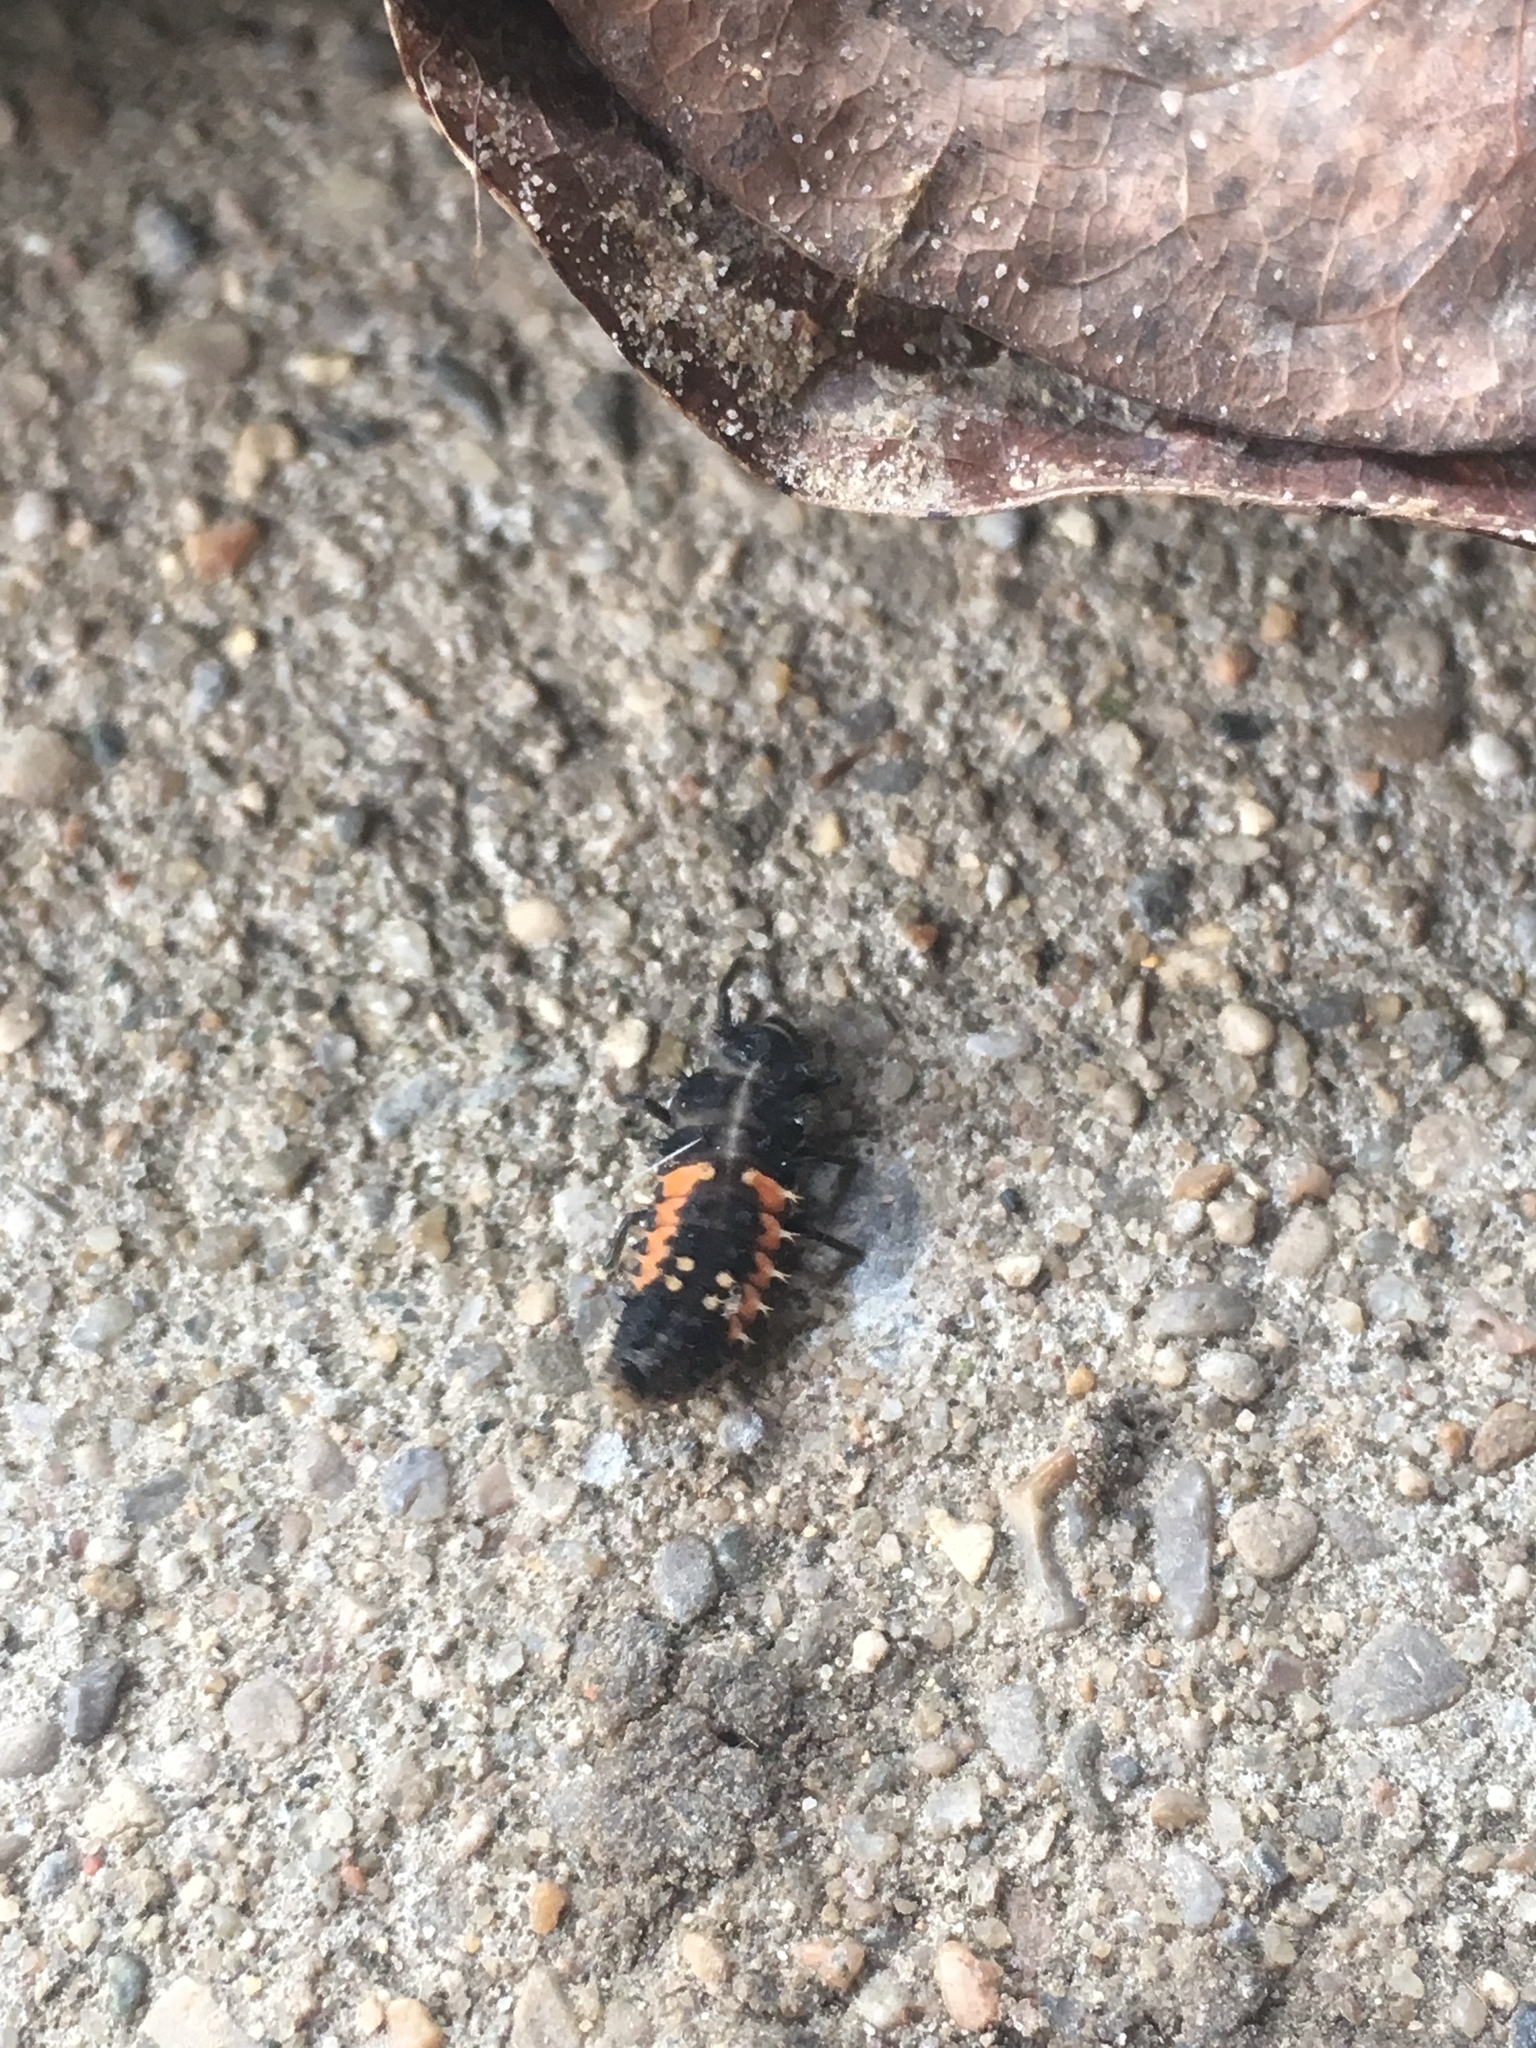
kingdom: Animalia
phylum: Arthropoda
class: Insecta
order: Coleoptera
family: Coccinellidae
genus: Harmonia
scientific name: Harmonia axyridis
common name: Harlequin ladybird
